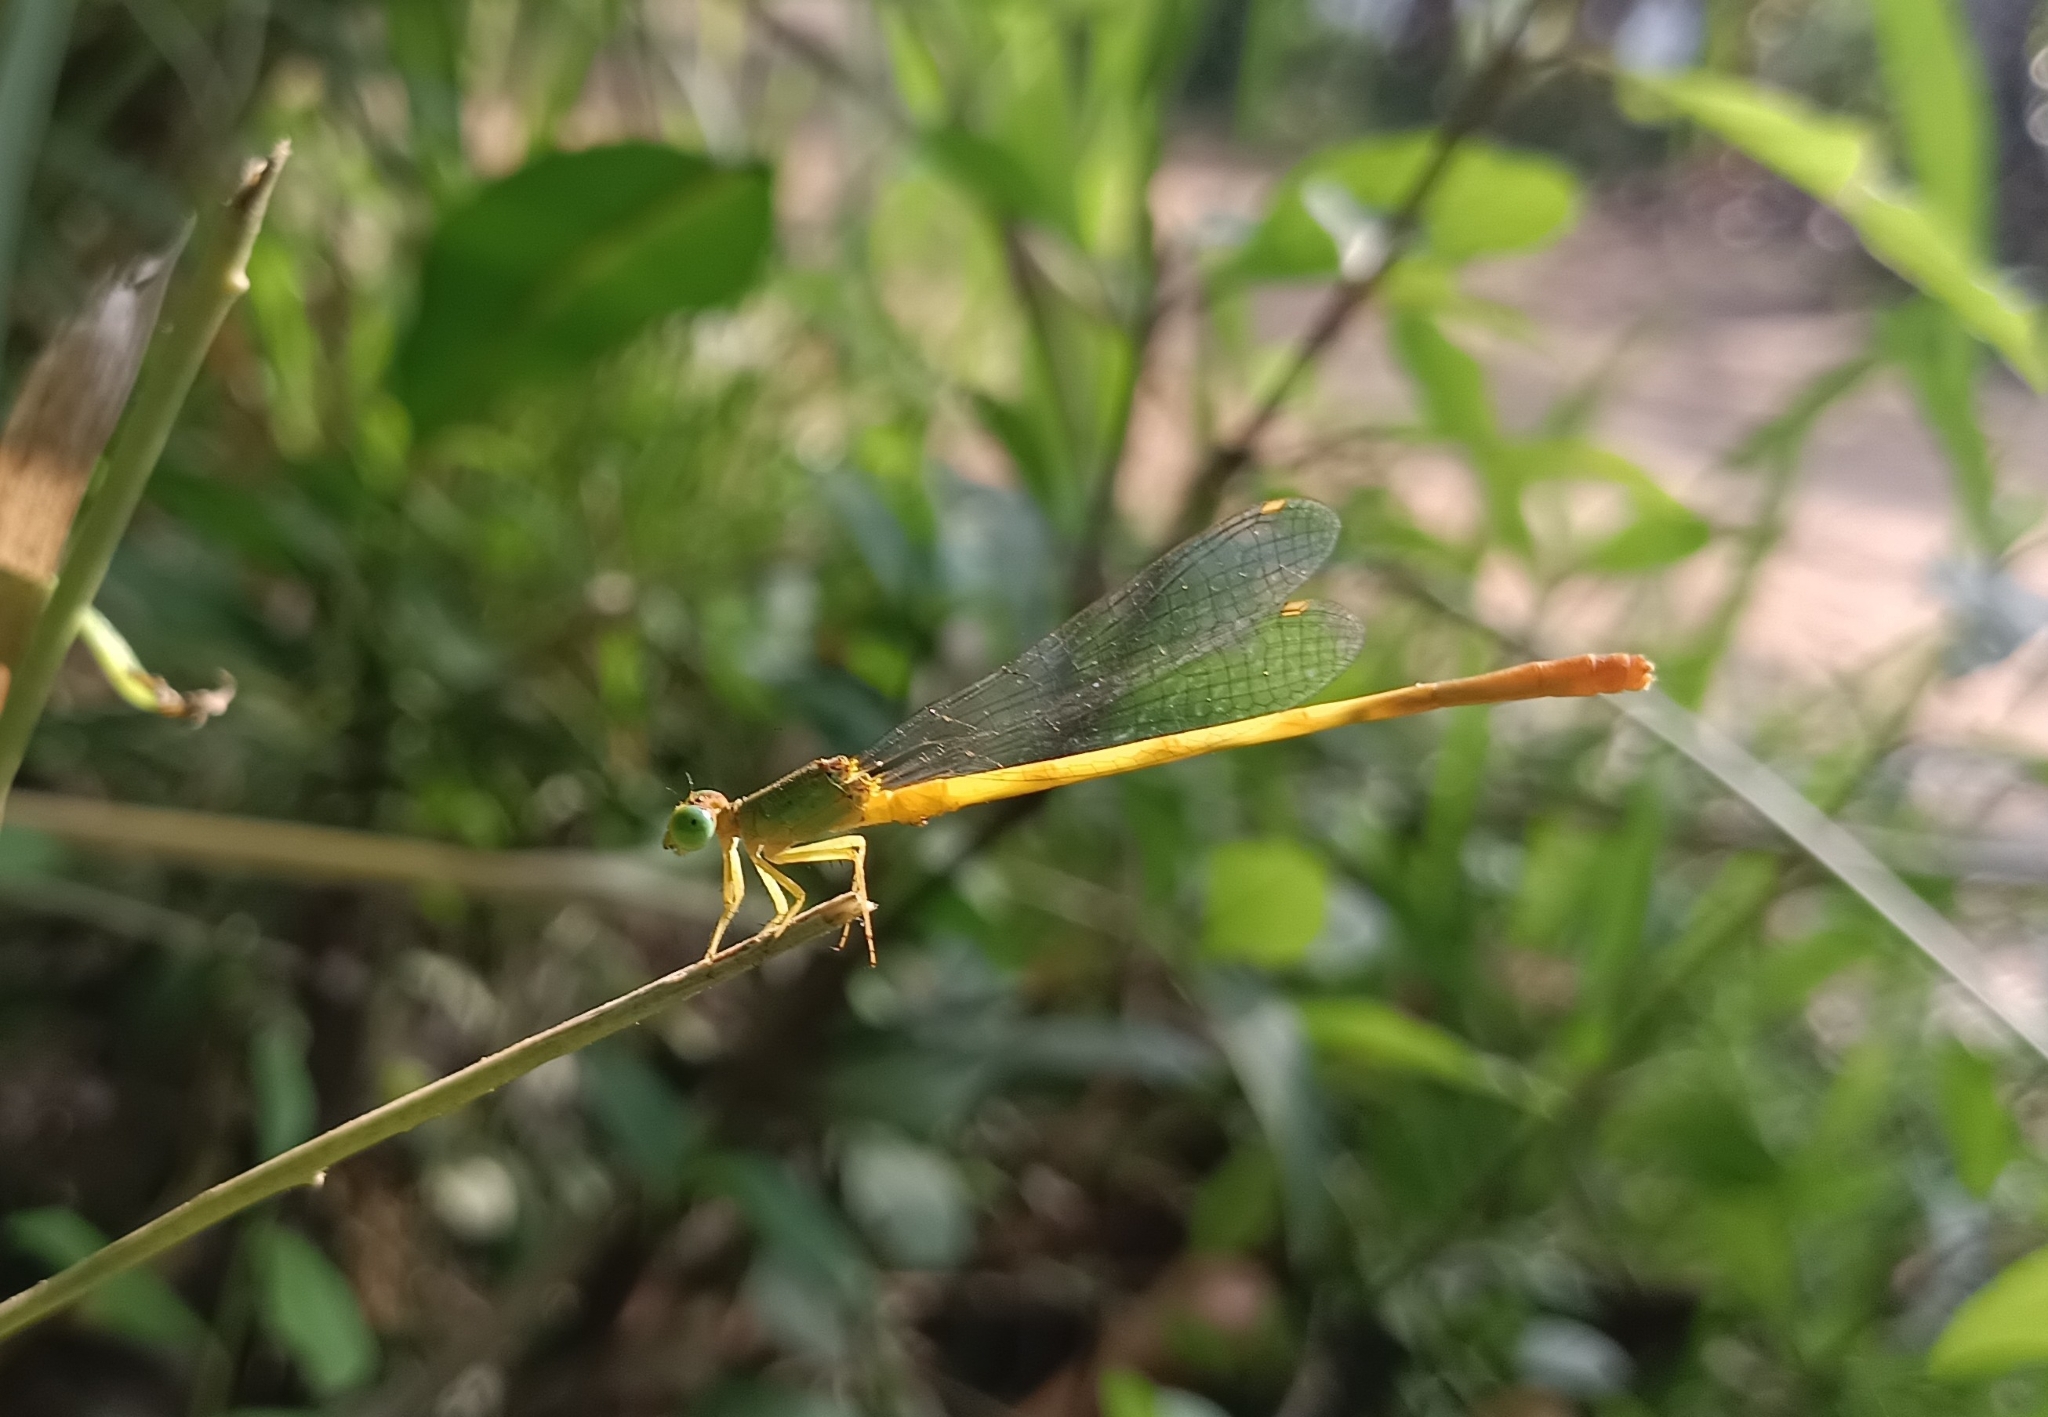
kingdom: Animalia
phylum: Arthropoda
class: Insecta
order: Odonata
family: Coenagrionidae
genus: Ceriagrion
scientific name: Ceriagrion coromandelianum
